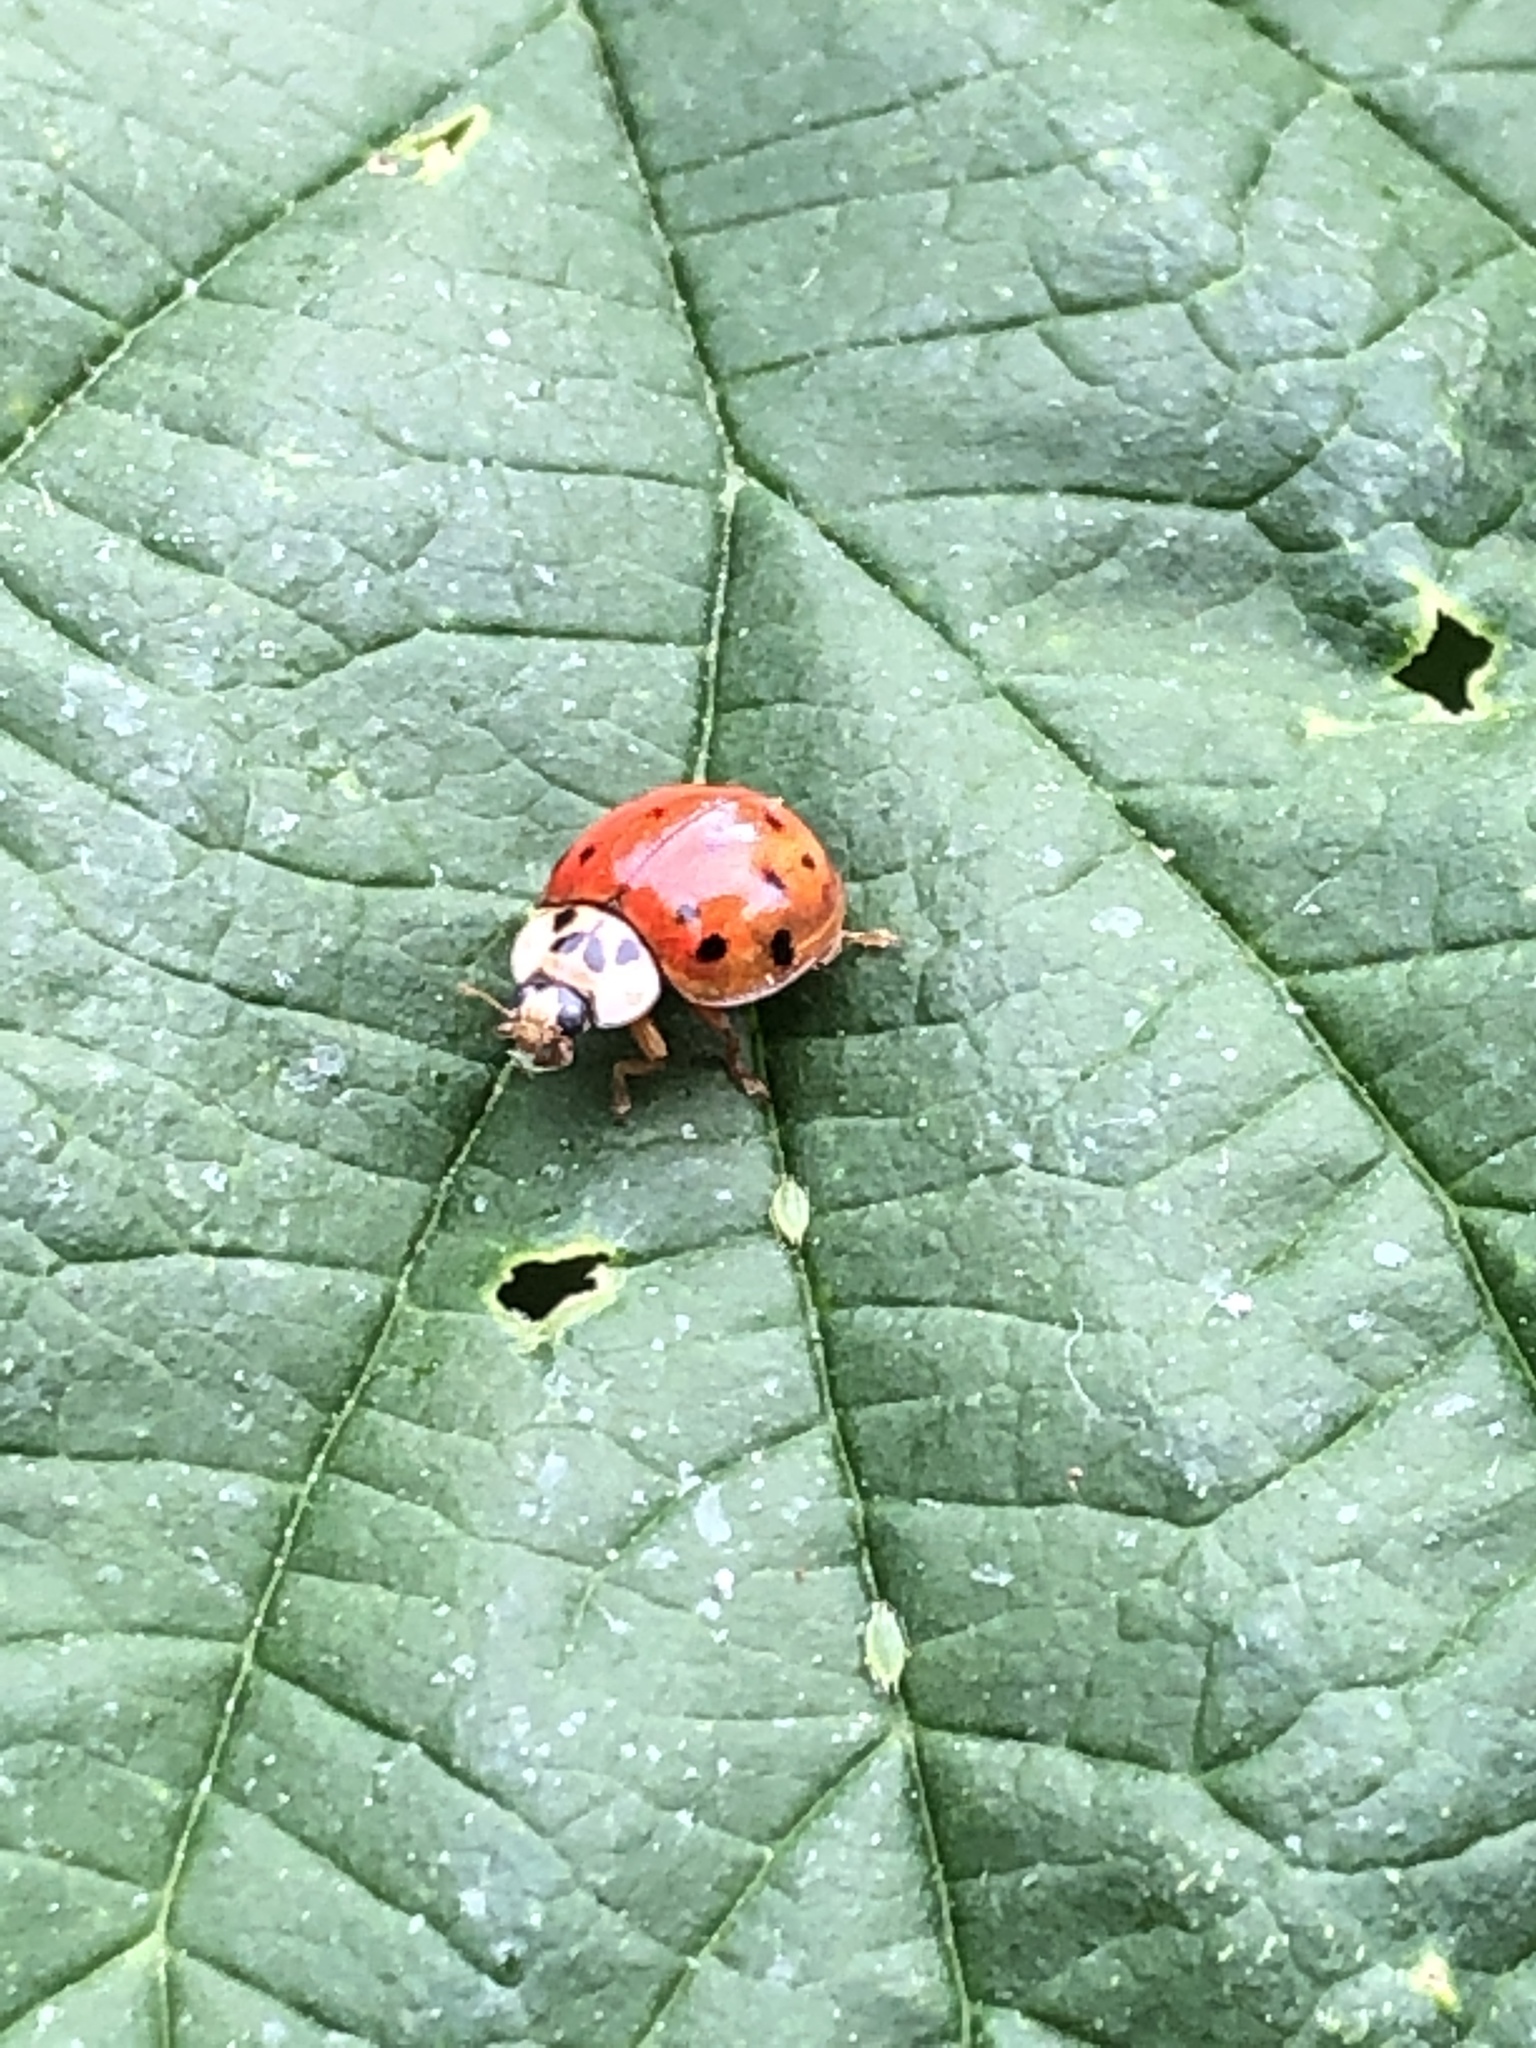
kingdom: Animalia
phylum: Arthropoda
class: Insecta
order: Coleoptera
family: Coccinellidae
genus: Harmonia
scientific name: Harmonia axyridis
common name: Harlequin ladybird
